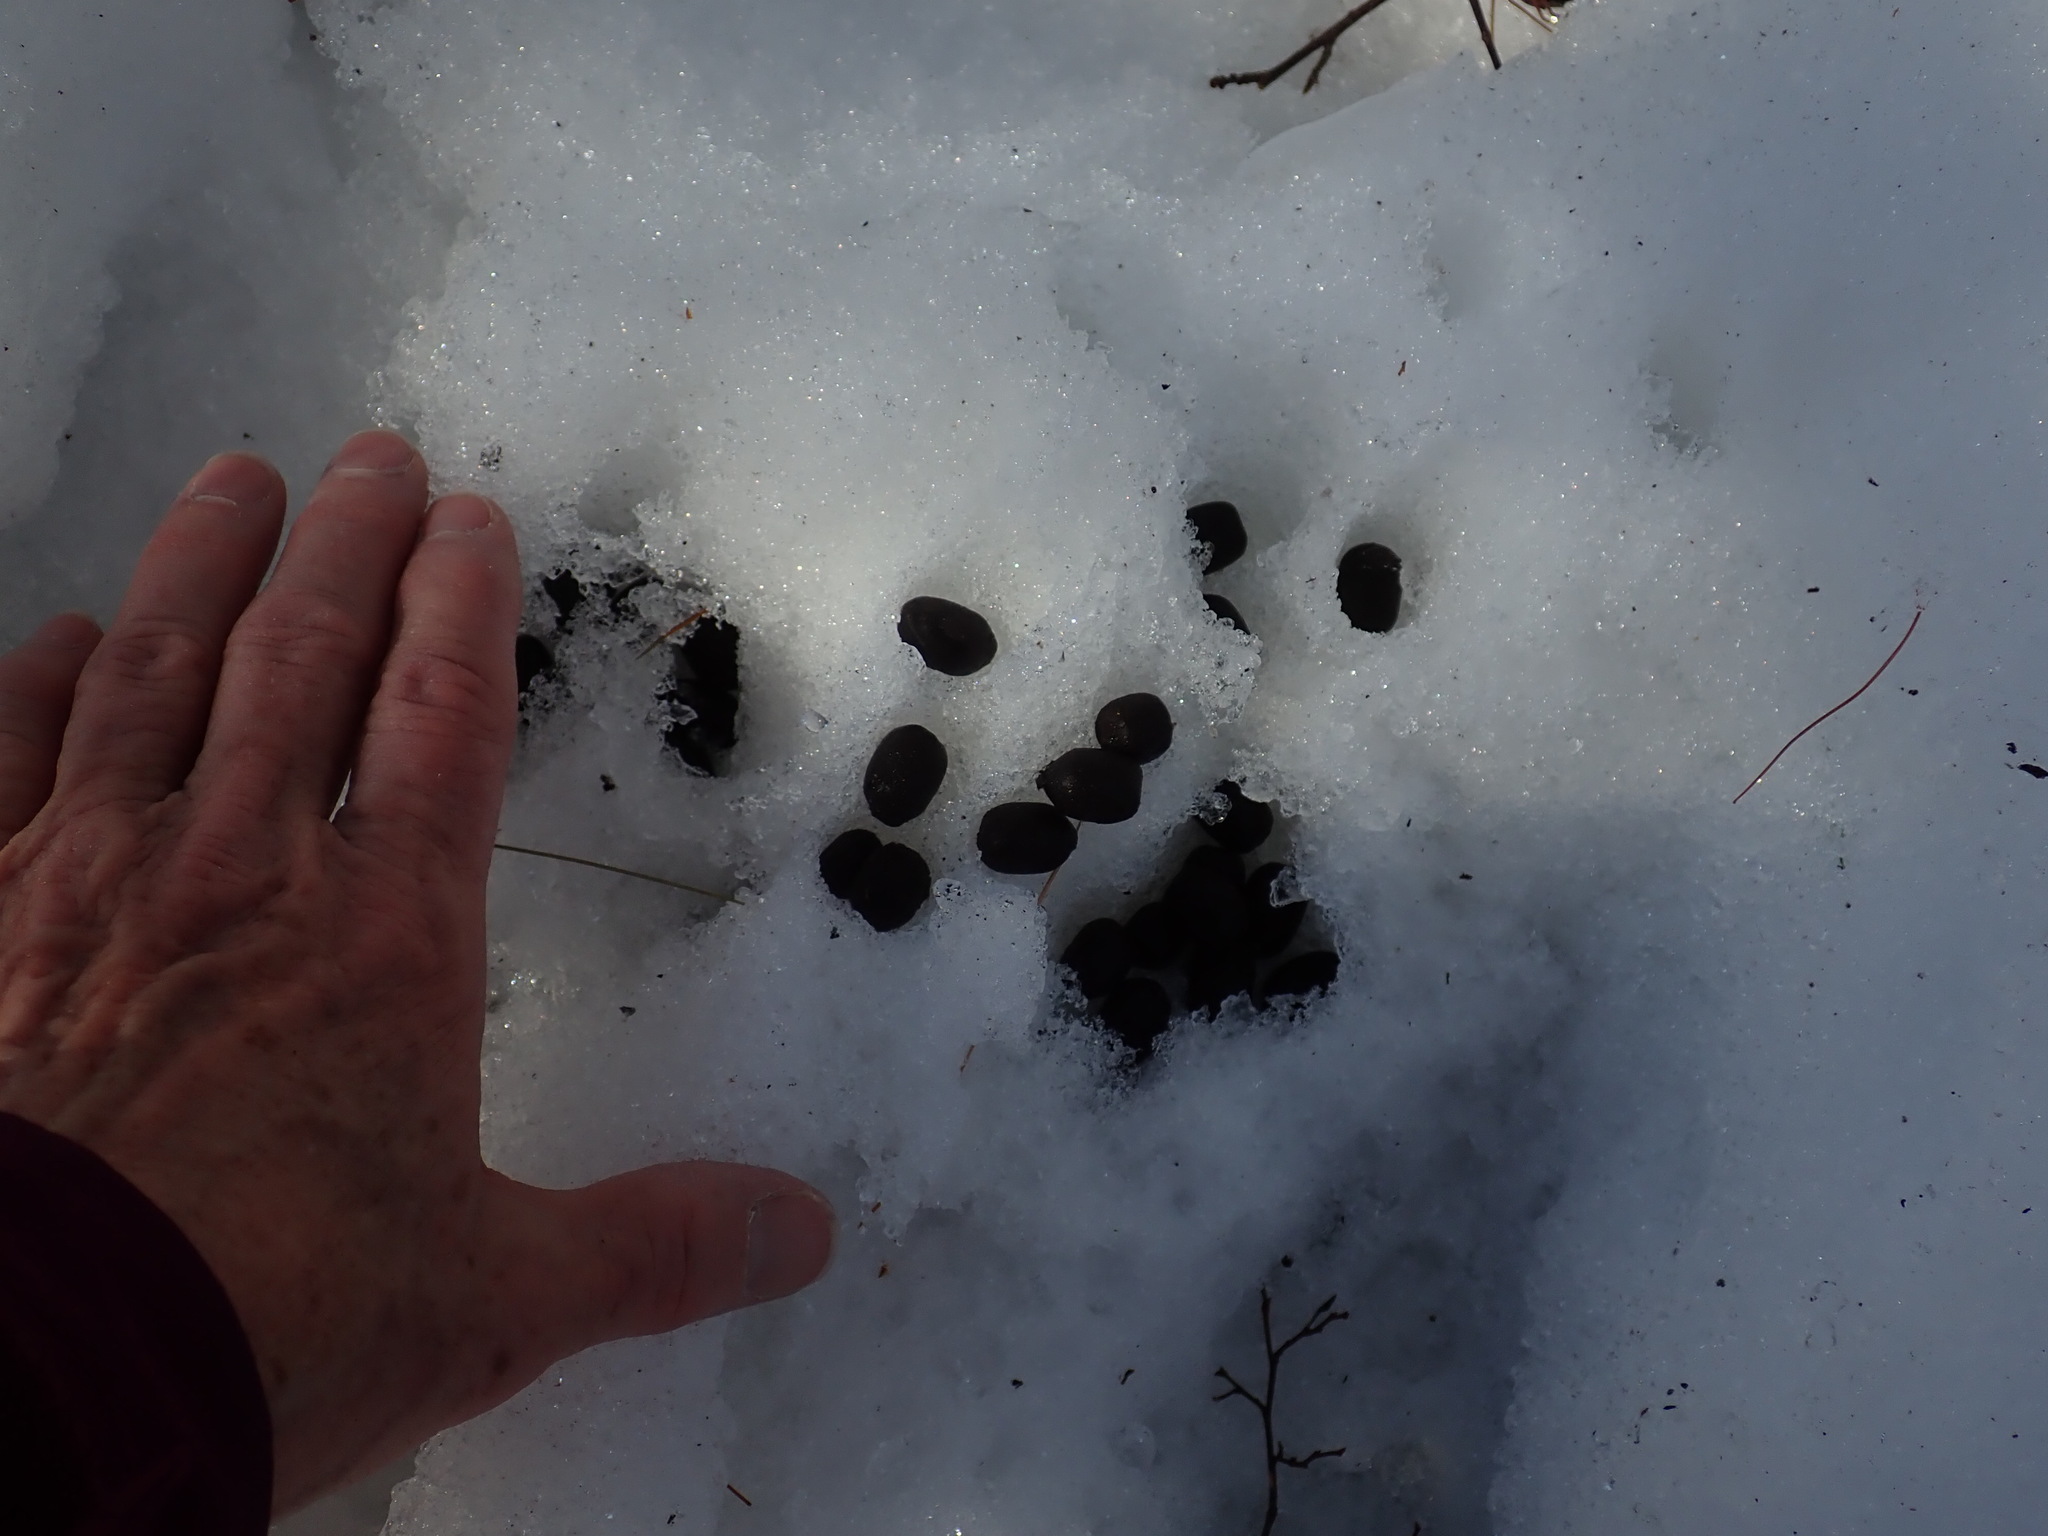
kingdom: Animalia
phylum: Chordata
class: Mammalia
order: Artiodactyla
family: Cervidae
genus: Alces
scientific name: Alces alces
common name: Moose
